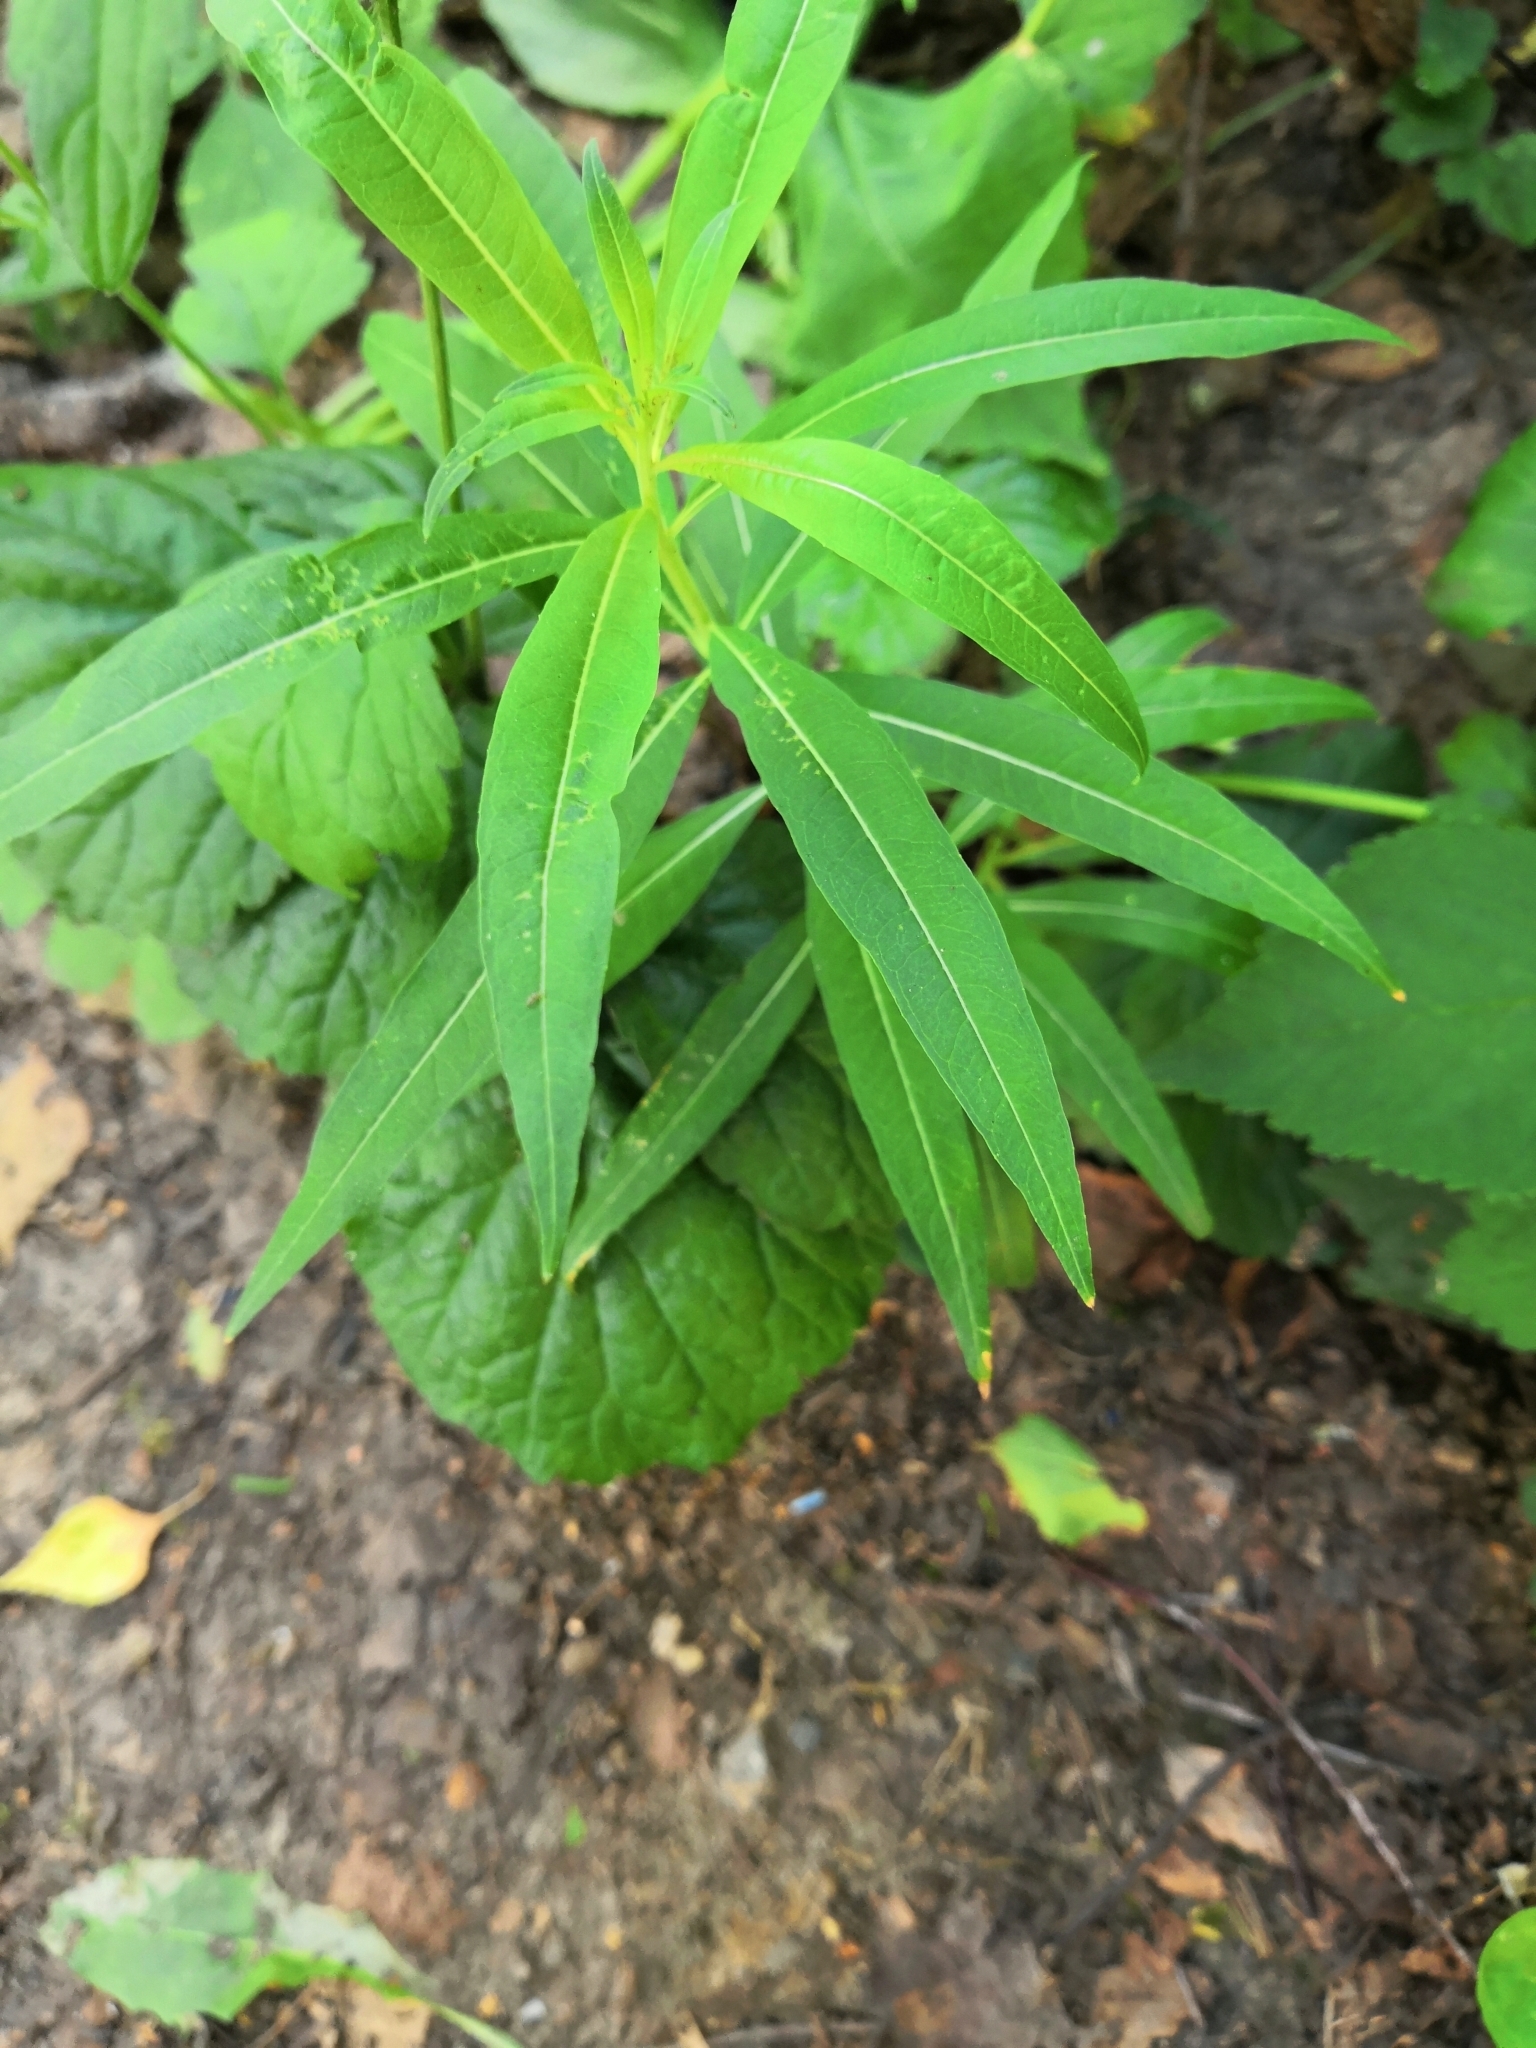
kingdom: Plantae
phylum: Tracheophyta
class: Magnoliopsida
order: Myrtales
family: Onagraceae
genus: Chamaenerion
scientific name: Chamaenerion angustifolium
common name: Fireweed
